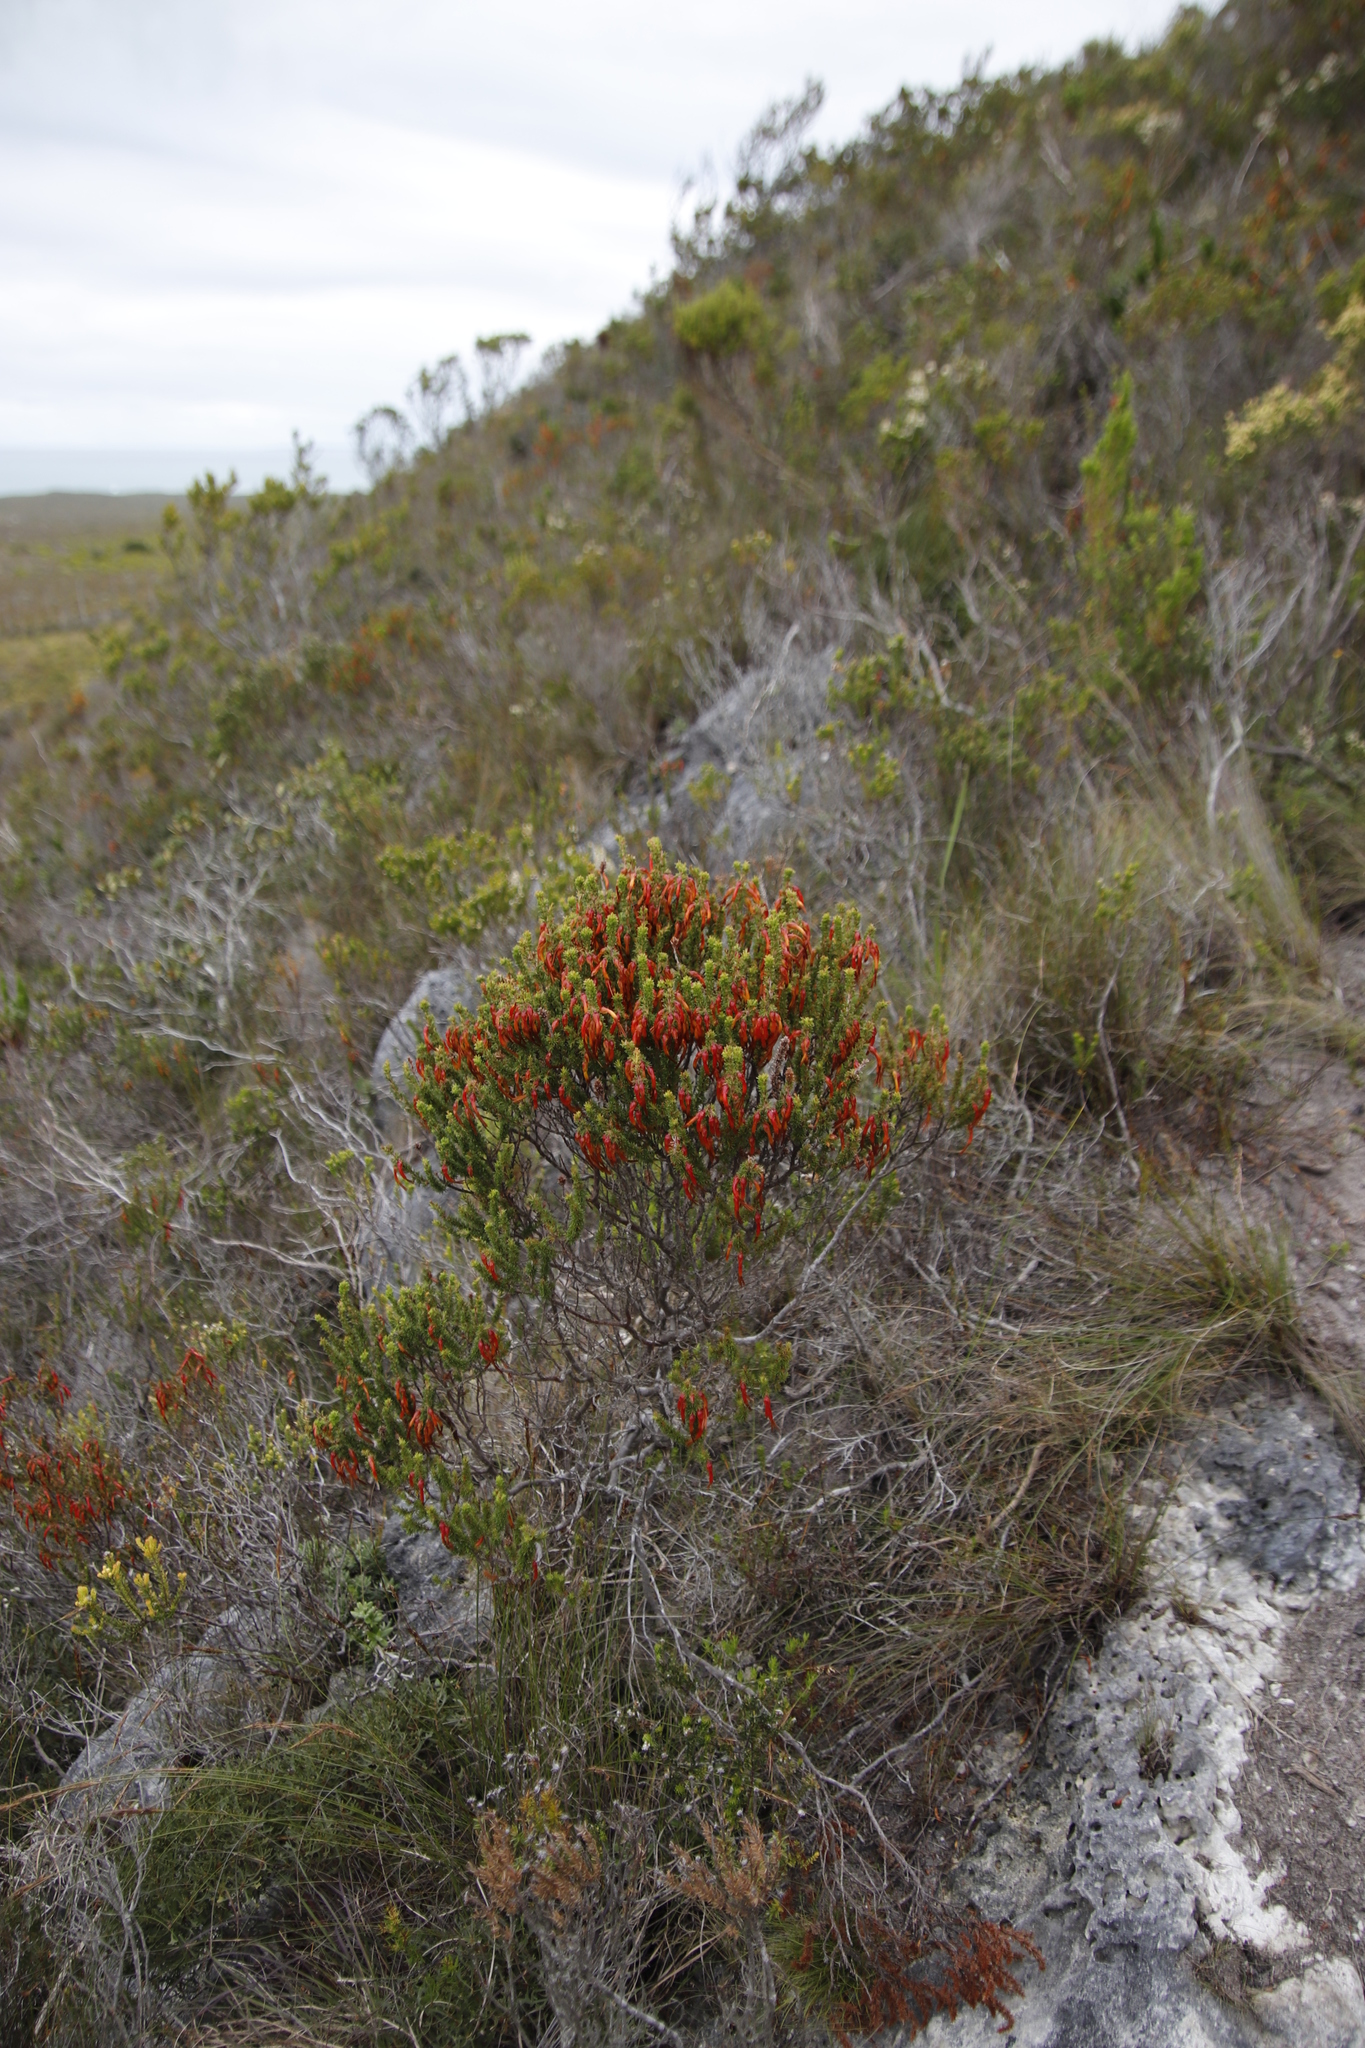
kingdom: Plantae
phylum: Tracheophyta
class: Magnoliopsida
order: Ericales
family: Ericaceae
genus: Erica
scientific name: Erica coccinea
